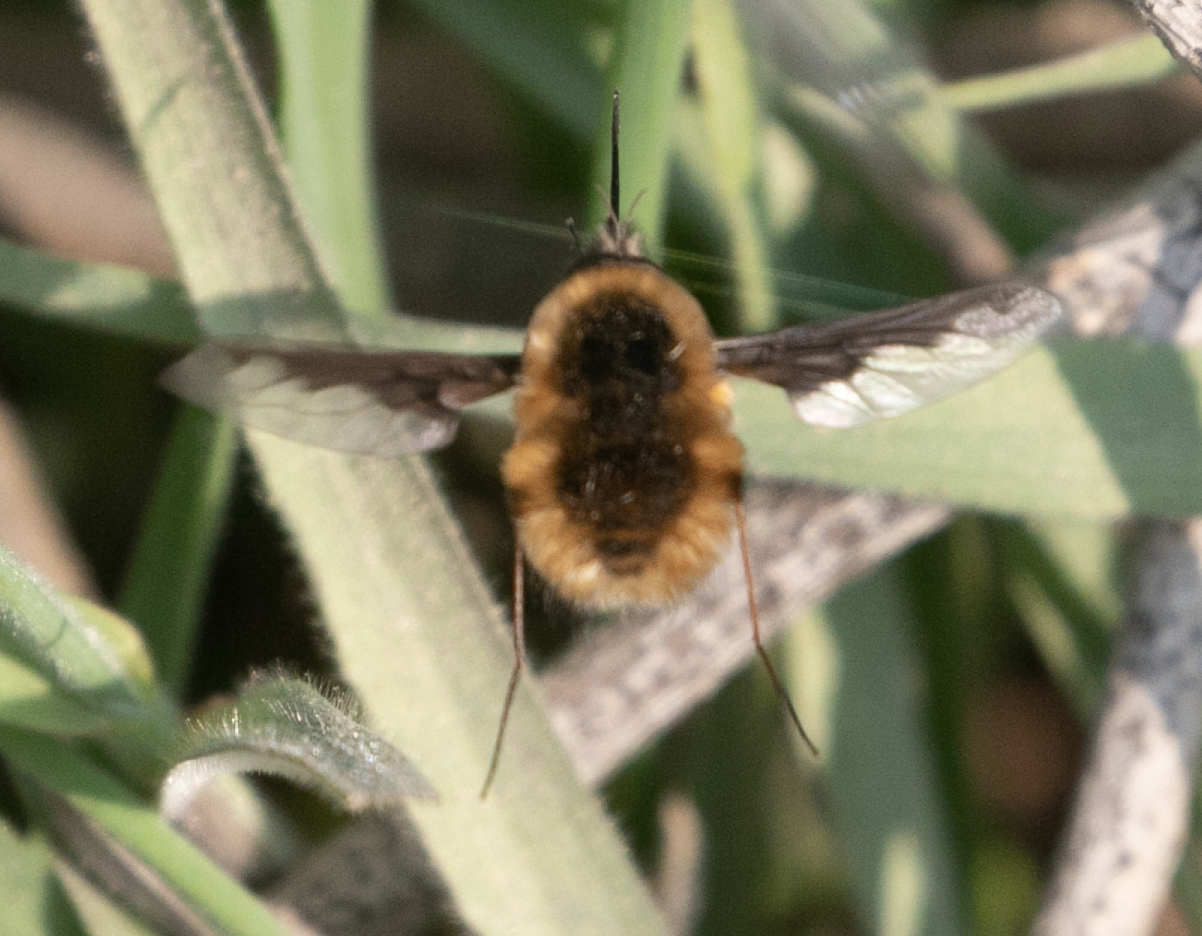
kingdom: Animalia
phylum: Arthropoda
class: Insecta
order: Diptera
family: Bombyliidae
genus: Bombylius
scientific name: Bombylius major
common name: Bee fly
